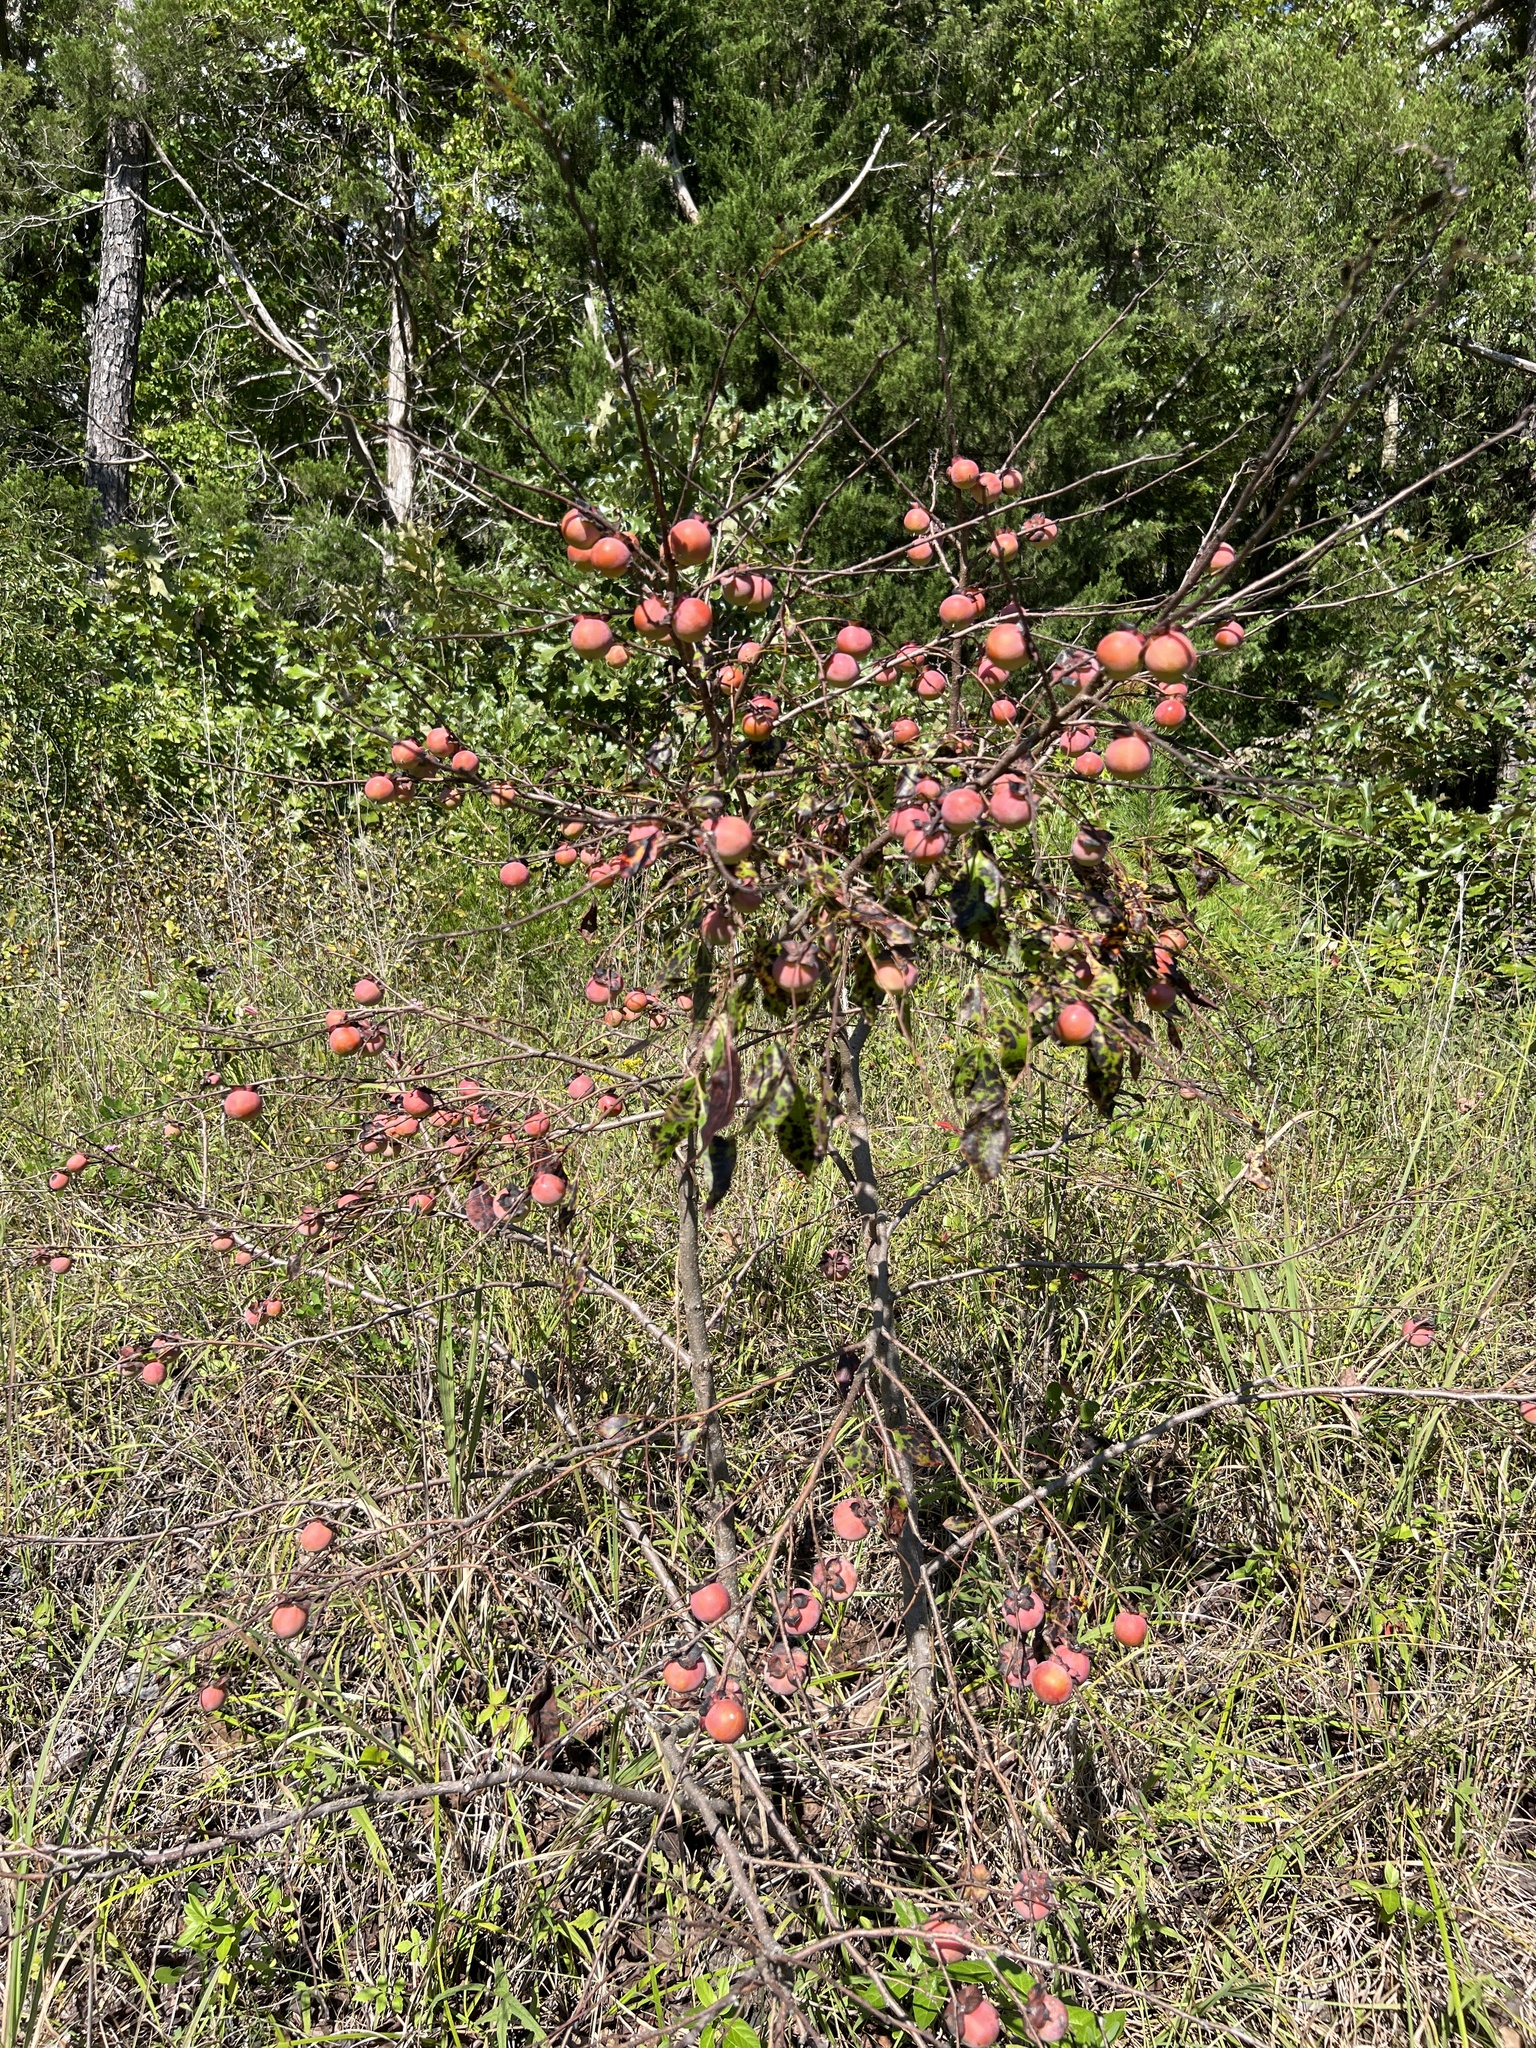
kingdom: Plantae
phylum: Tracheophyta
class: Magnoliopsida
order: Ericales
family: Ebenaceae
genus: Diospyros
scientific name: Diospyros virginiana
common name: Persimmon
